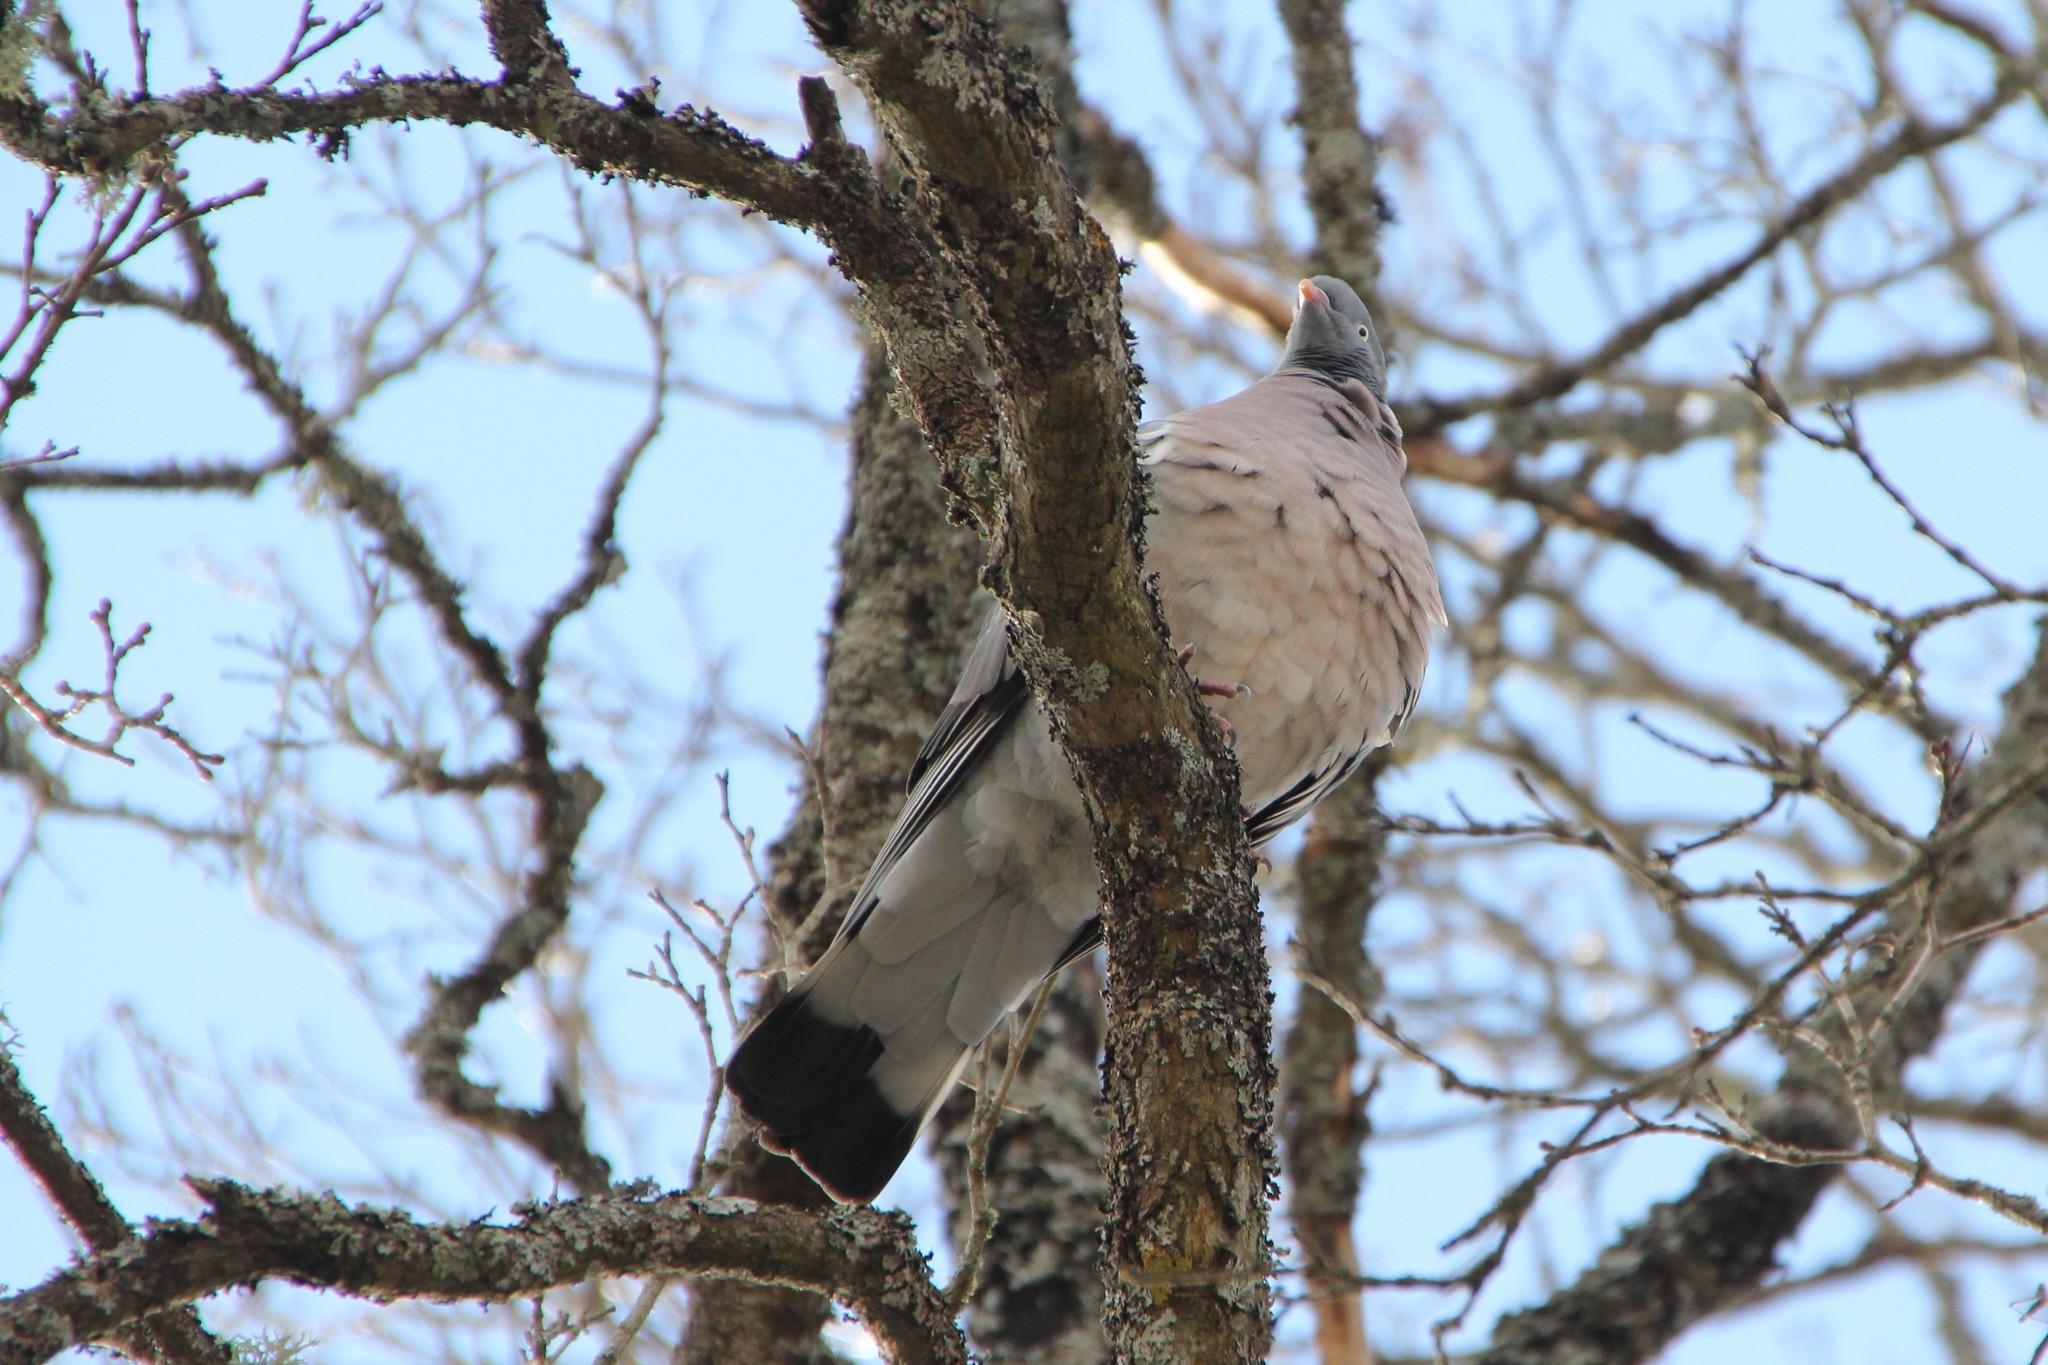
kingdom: Animalia
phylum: Chordata
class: Aves
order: Columbiformes
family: Columbidae
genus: Columba
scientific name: Columba palumbus
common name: Common wood pigeon
